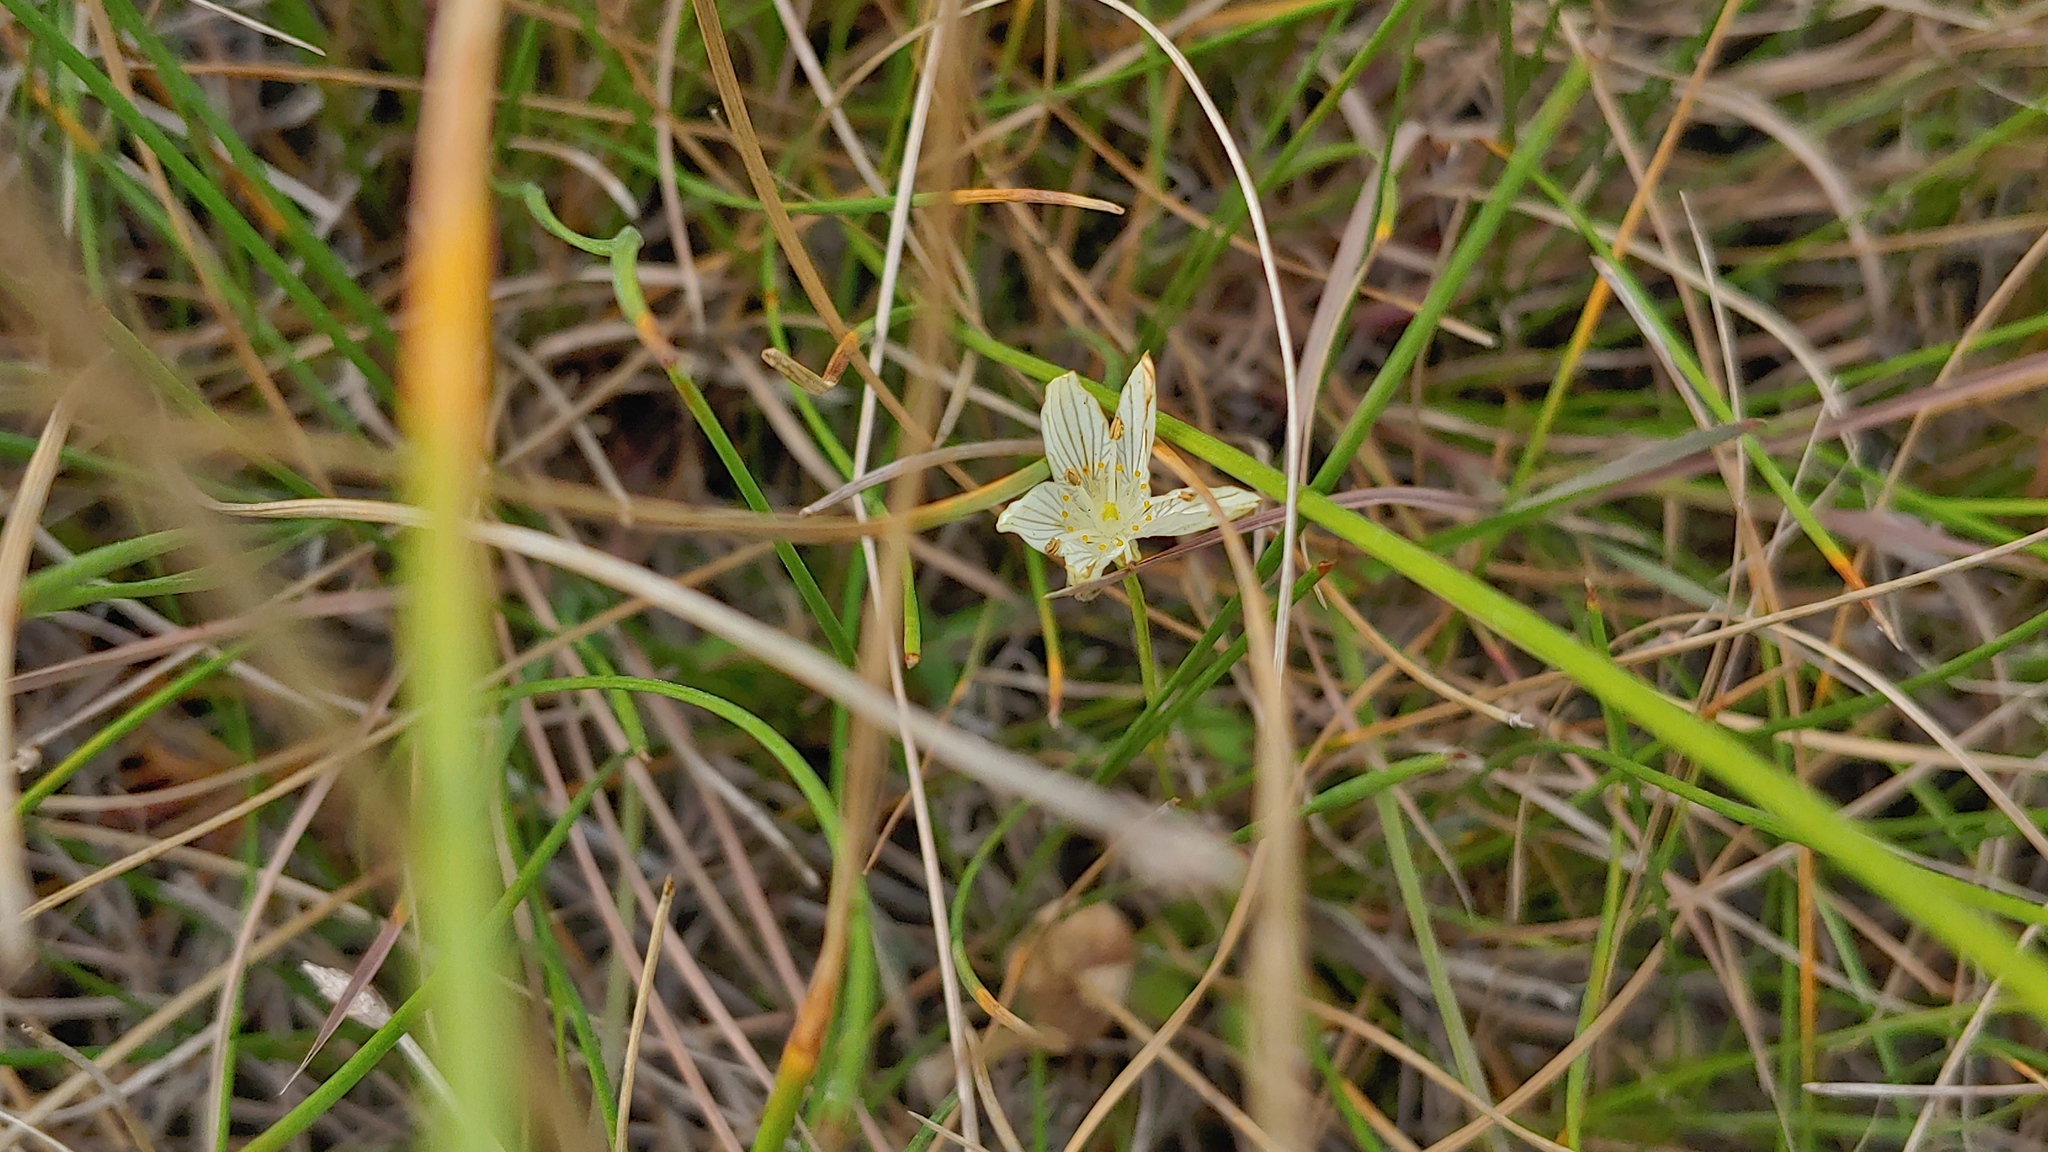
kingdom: Plantae
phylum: Tracheophyta
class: Magnoliopsida
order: Celastrales
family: Parnassiaceae
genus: Parnassia
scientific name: Parnassia glauca
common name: American grass-of-parnassus
